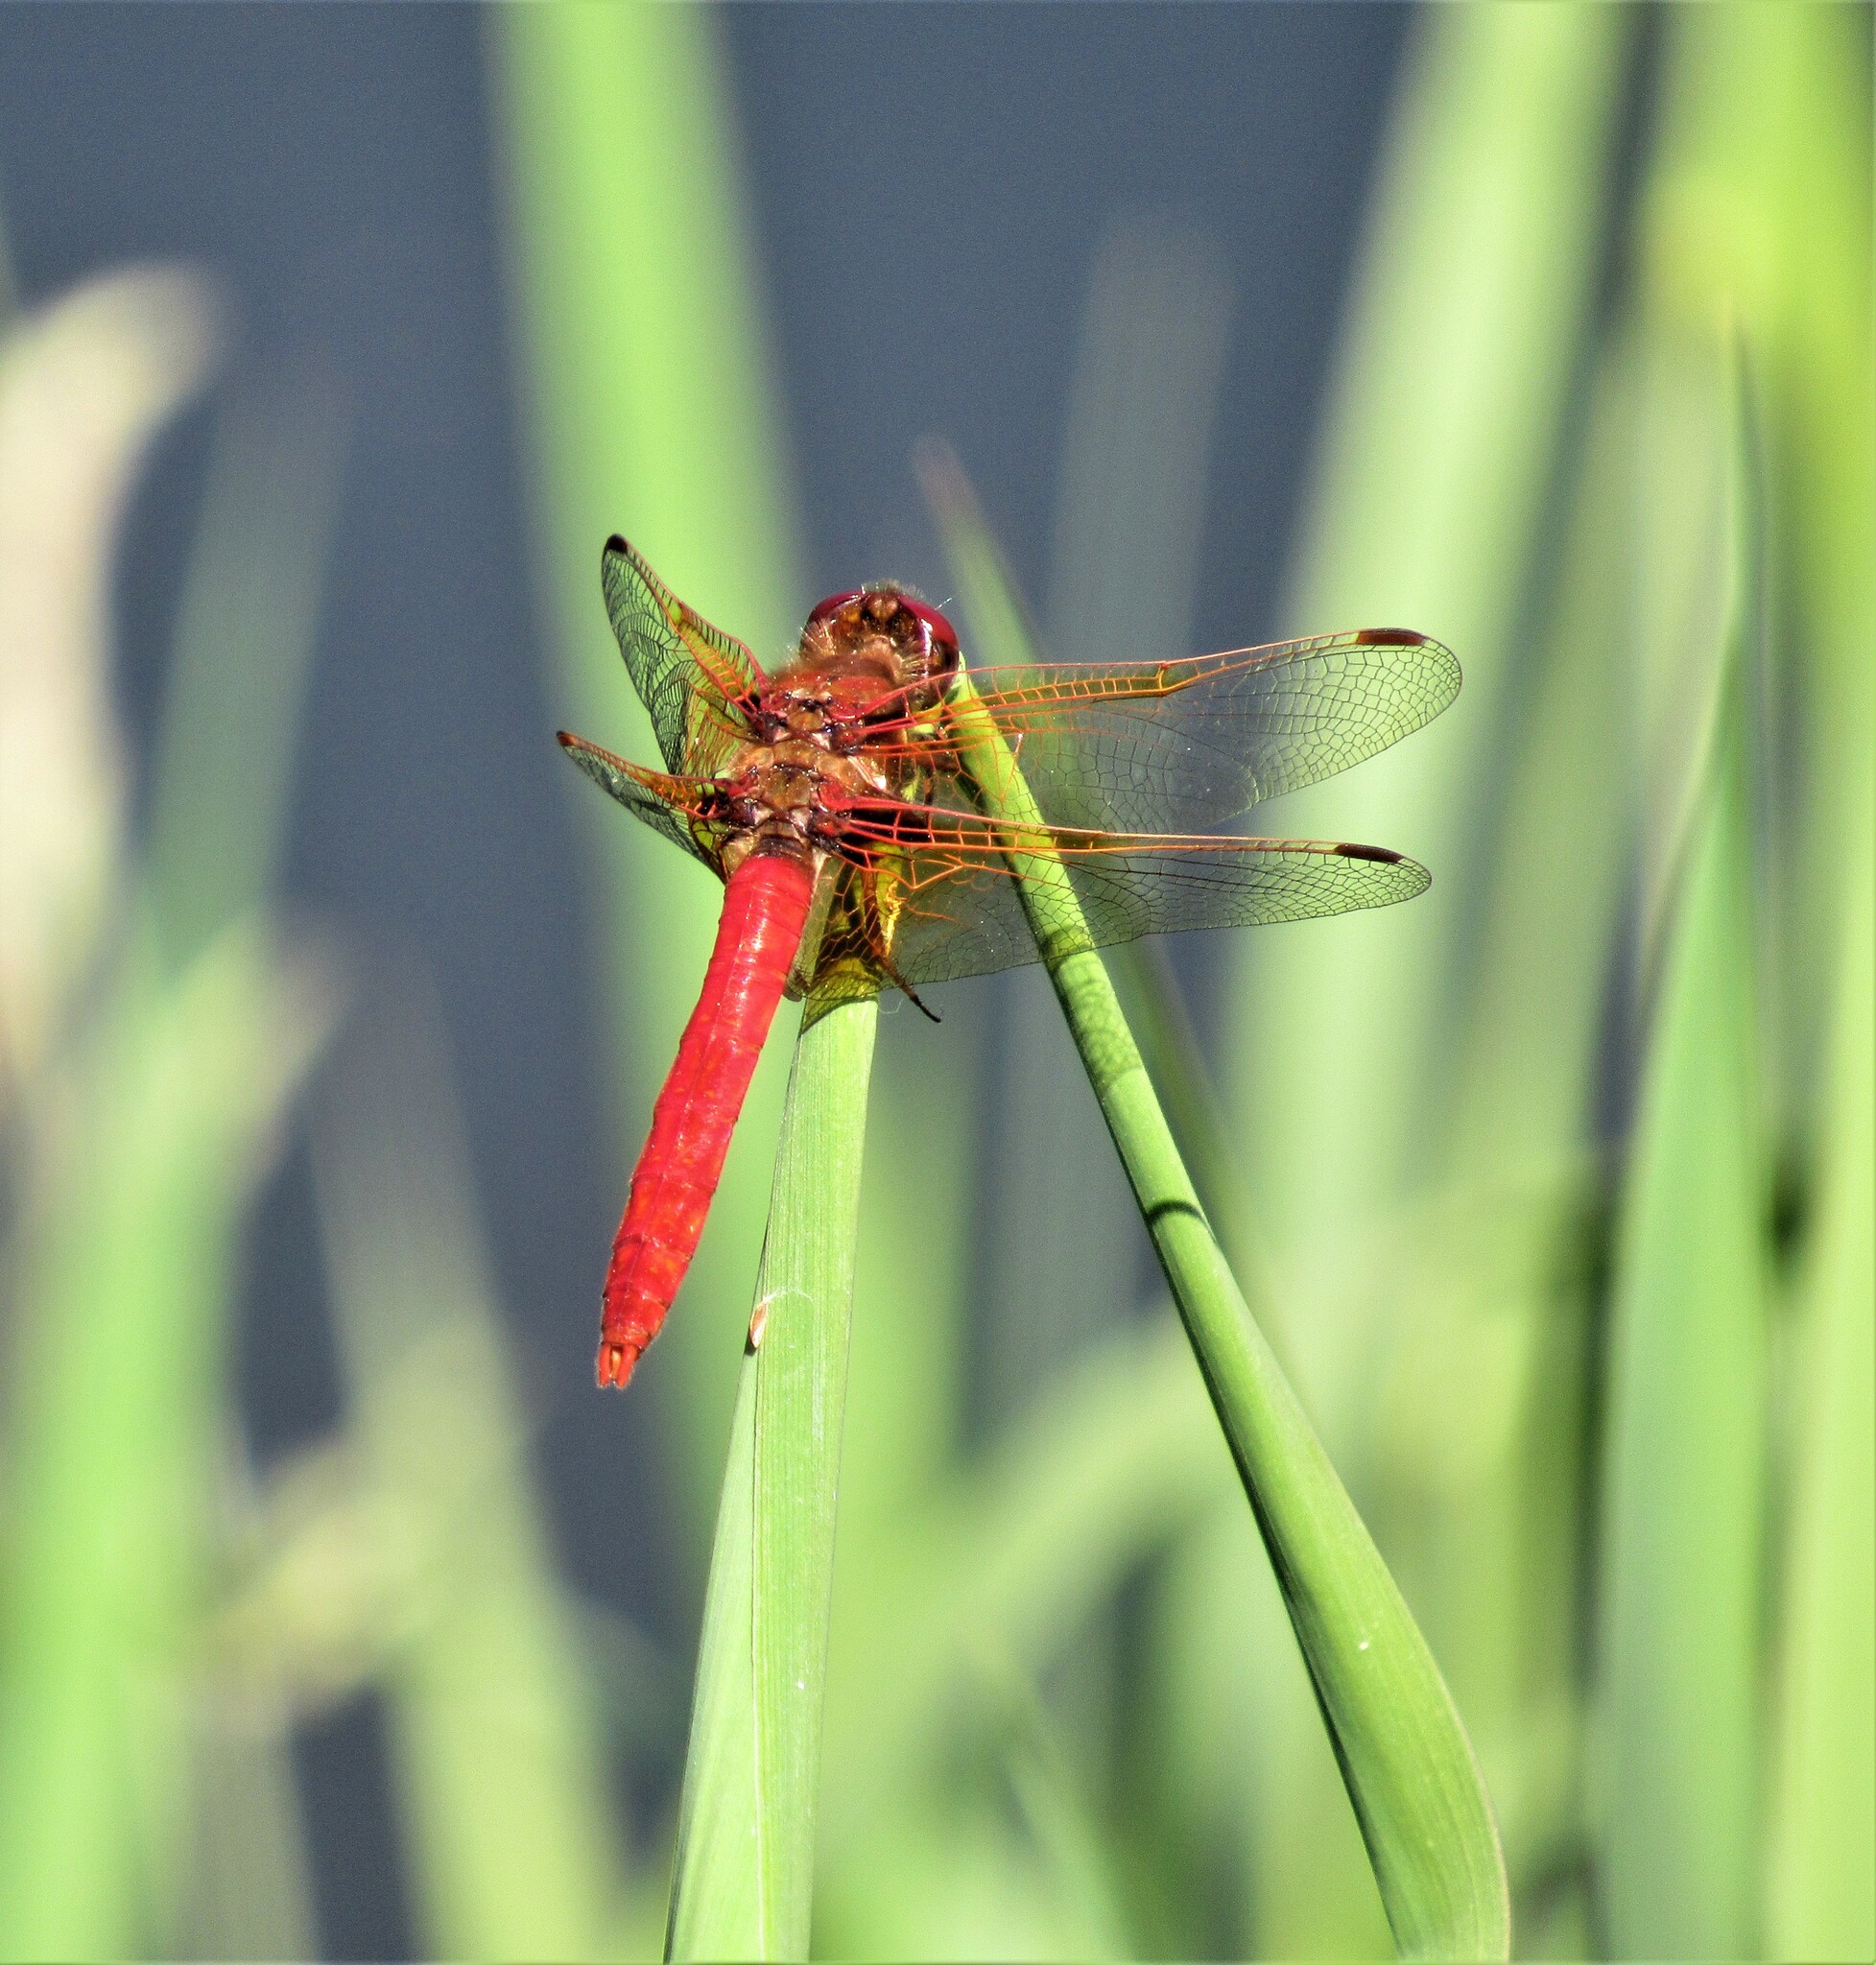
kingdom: Animalia
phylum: Arthropoda
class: Insecta
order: Odonata
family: Libellulidae
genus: Sympetrum
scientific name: Sympetrum illotum
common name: Cardinal meadowhawk
